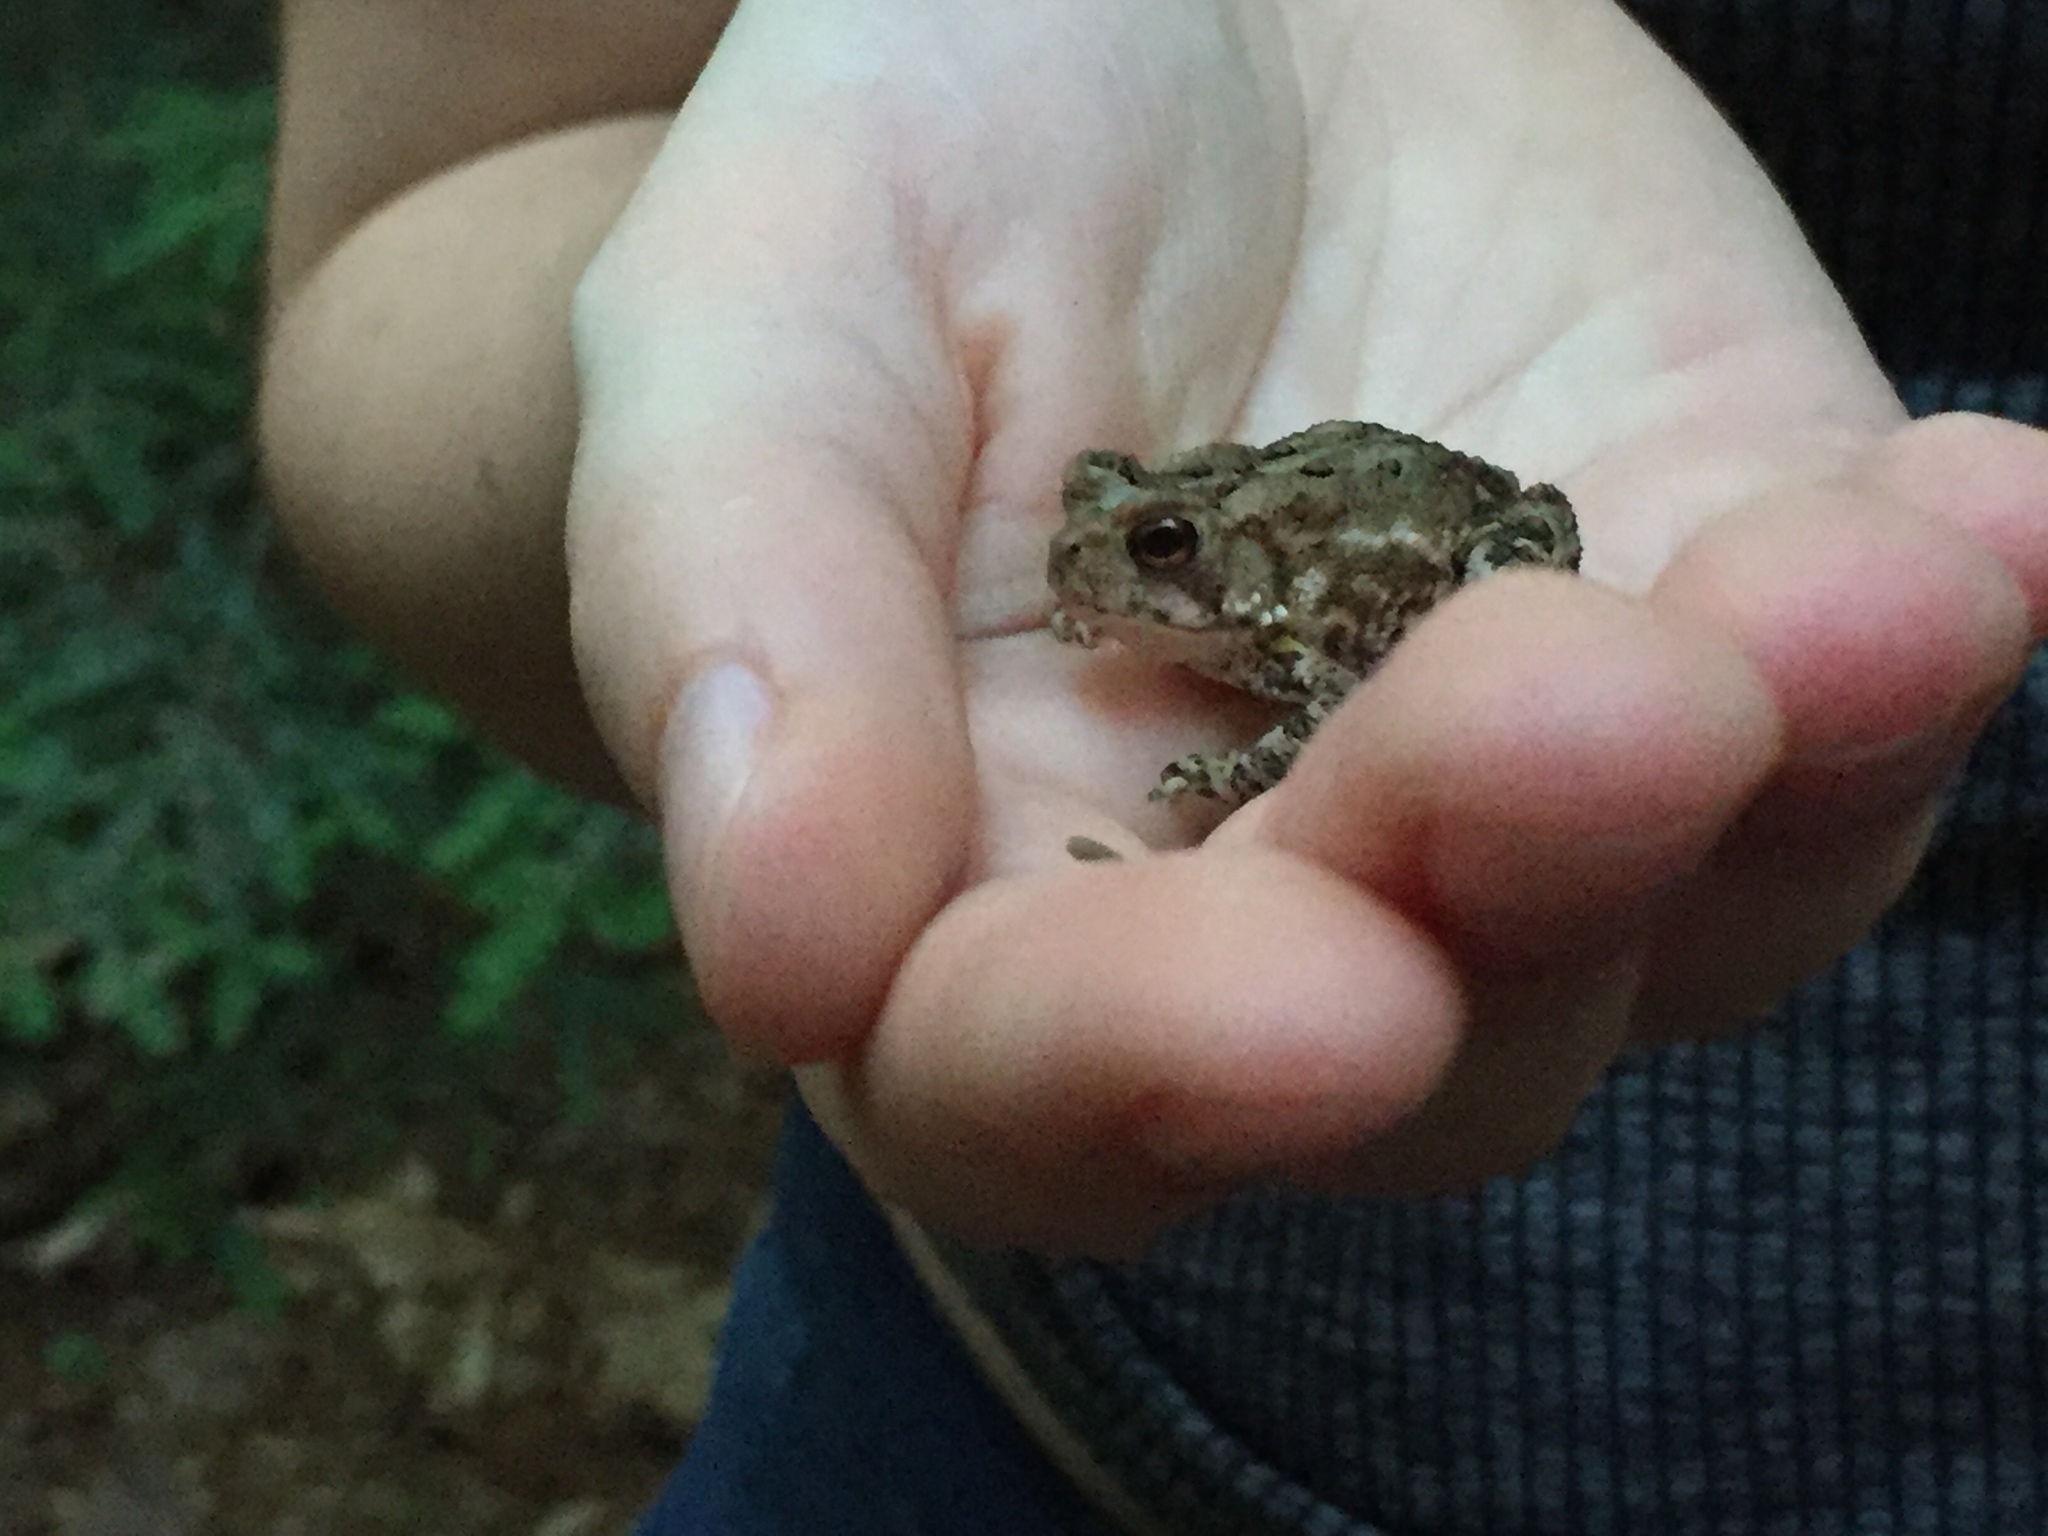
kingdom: Animalia
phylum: Chordata
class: Amphibia
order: Anura
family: Bufonidae
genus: Anaxyrus
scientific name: Anaxyrus americanus
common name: American toad
